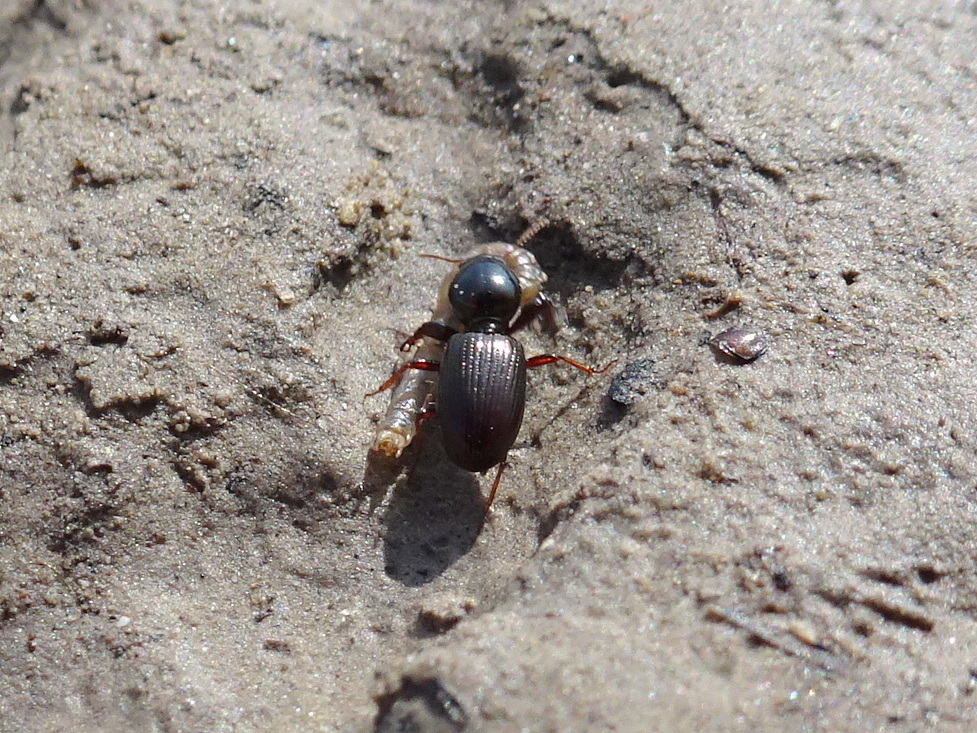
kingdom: Animalia
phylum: Arthropoda
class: Insecta
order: Coleoptera
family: Carabidae
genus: Clivina
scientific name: Clivina bipustulata
